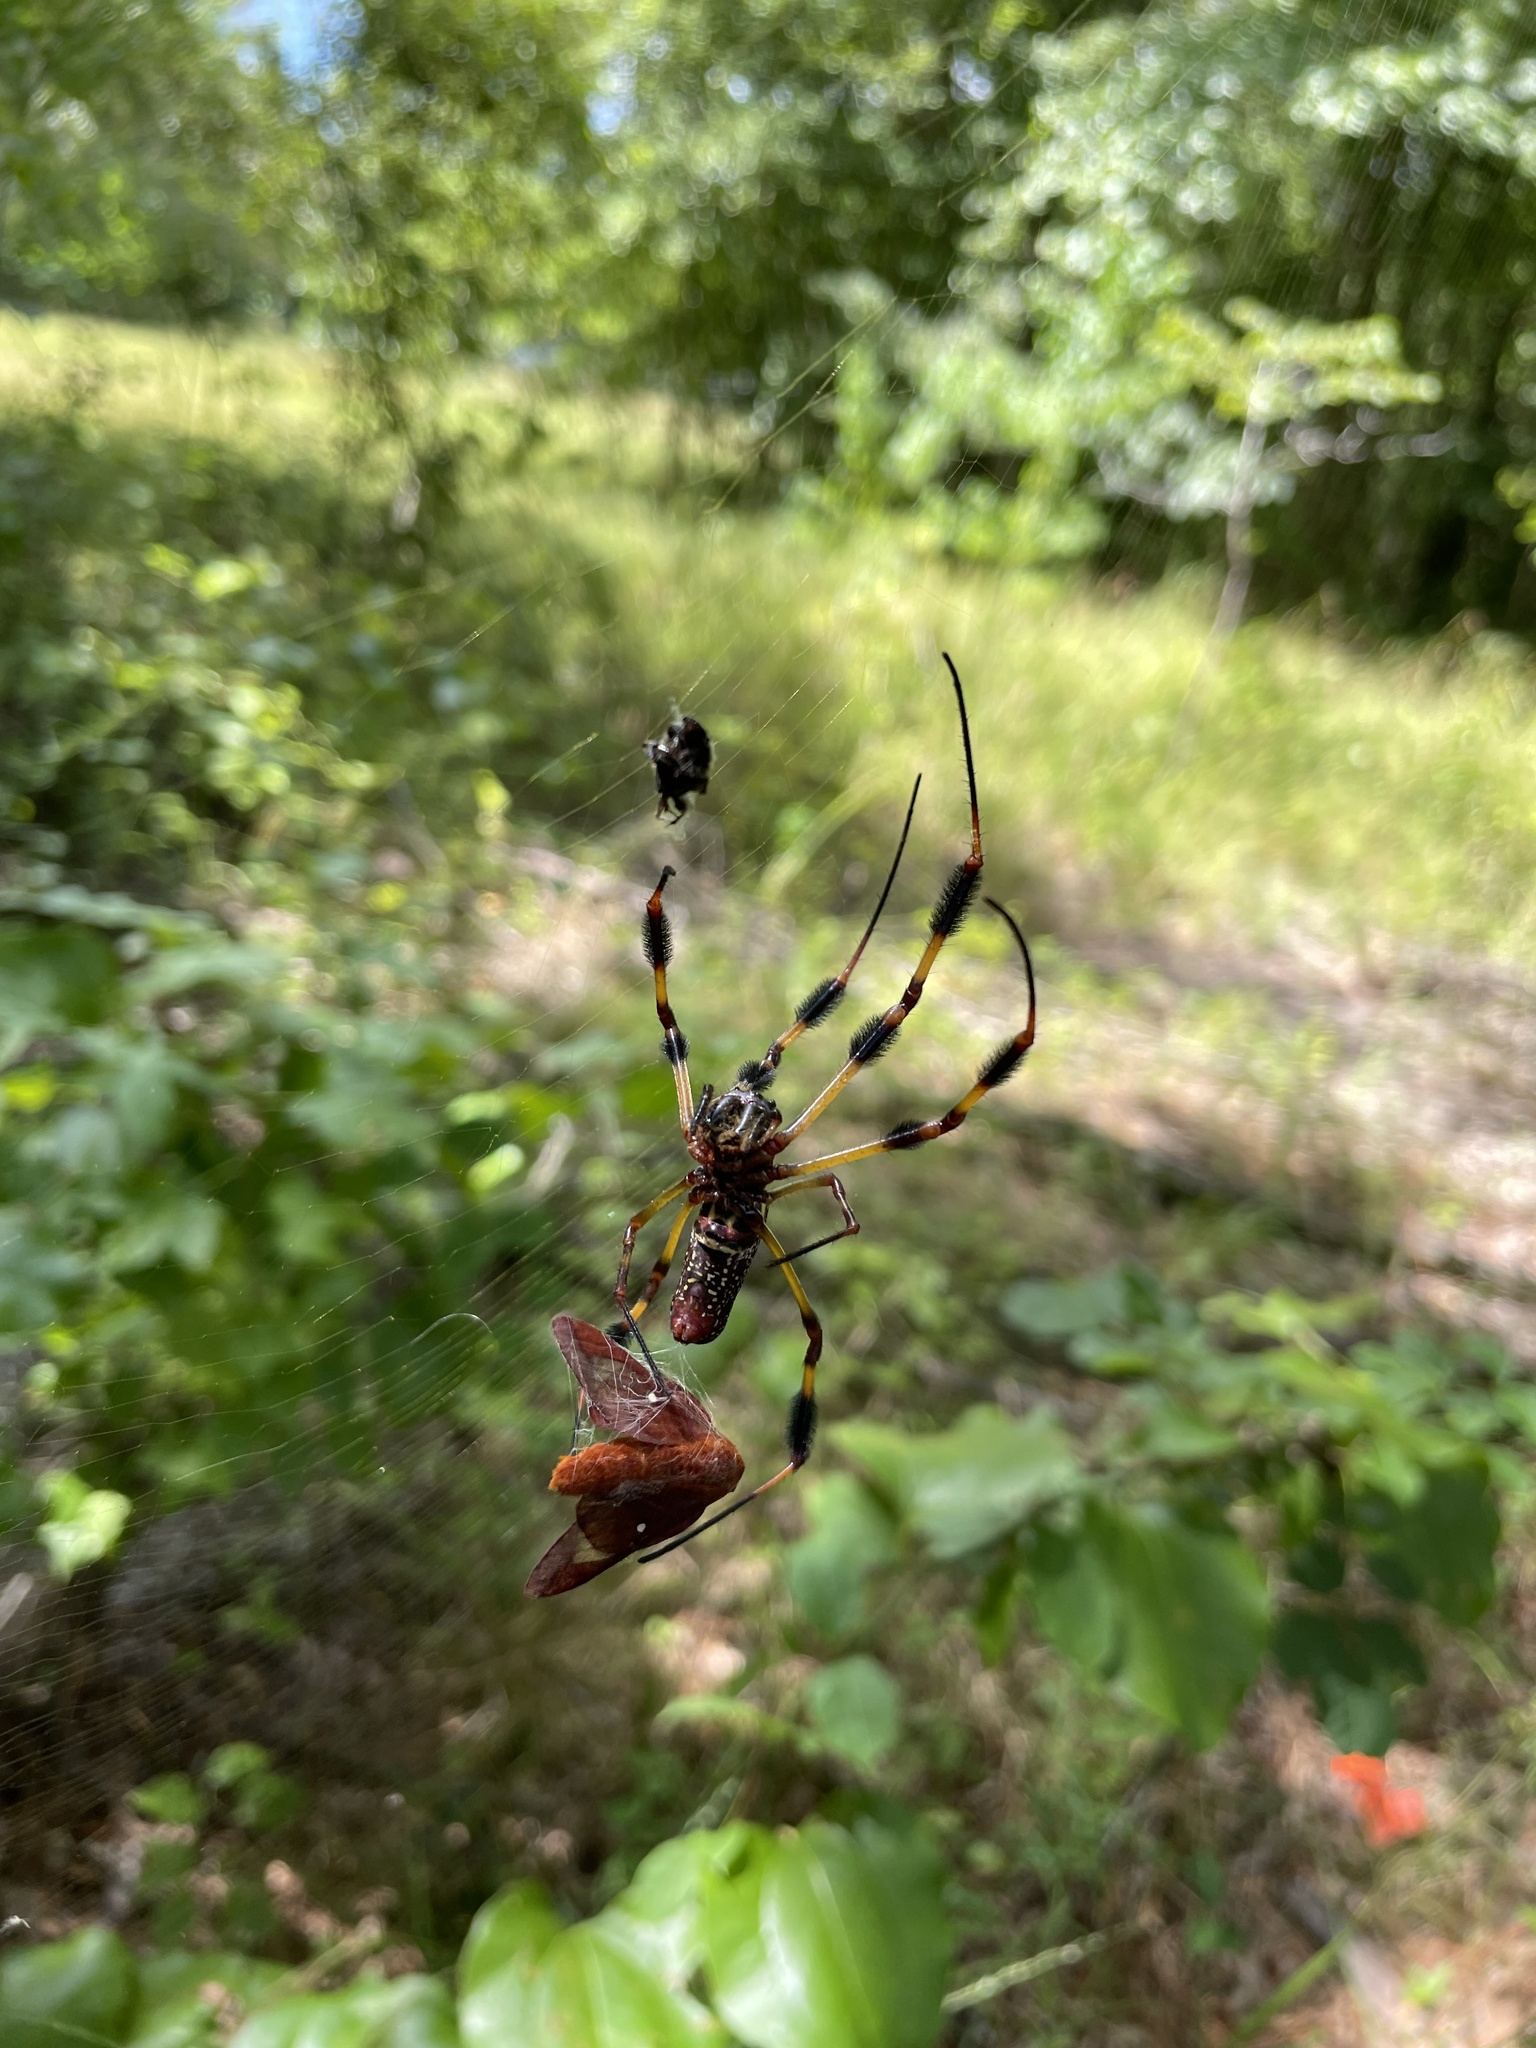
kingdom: Animalia
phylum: Arthropoda
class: Arachnida
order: Araneae
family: Araneidae
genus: Trichonephila
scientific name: Trichonephila clavipes
